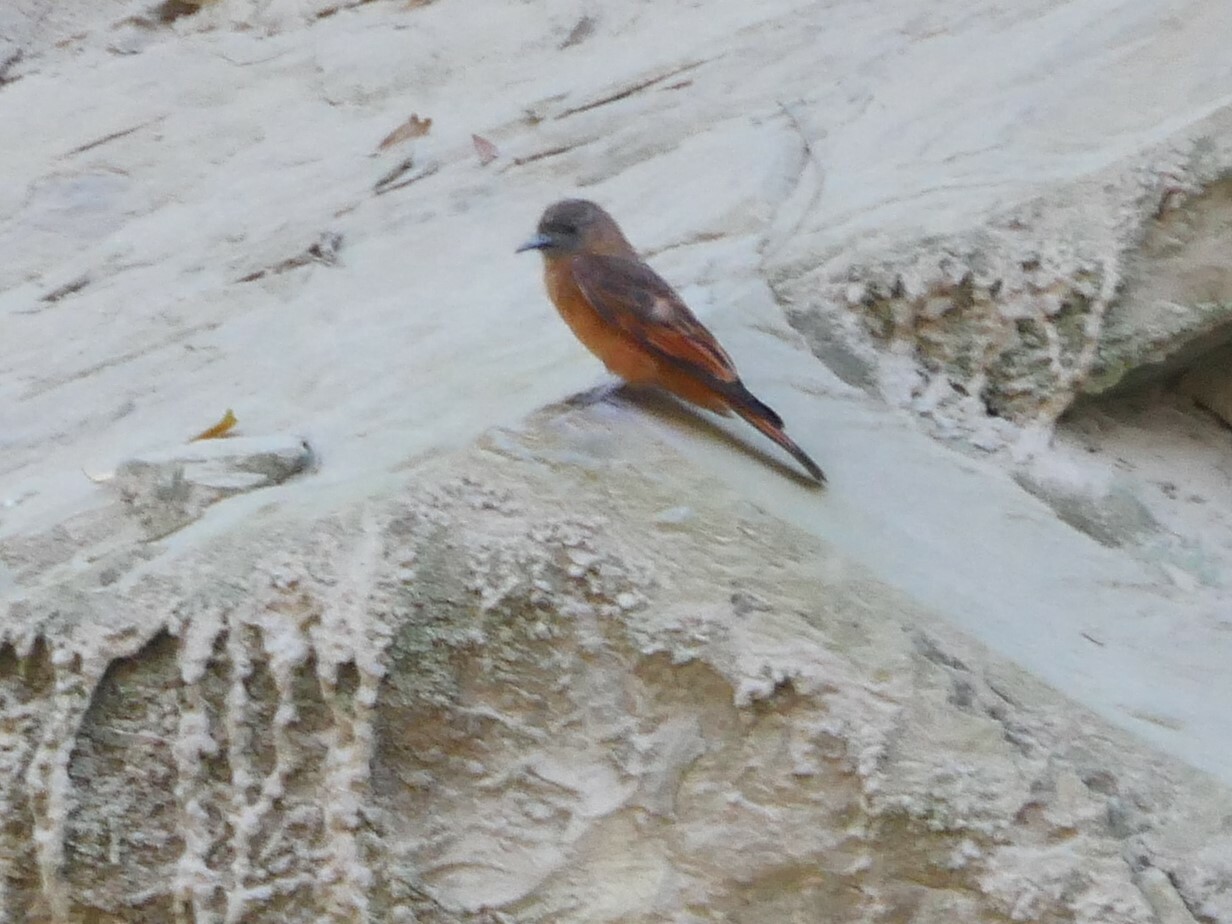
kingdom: Animalia
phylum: Chordata
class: Aves
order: Passeriformes
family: Tyrannidae
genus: Hirundinea
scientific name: Hirundinea ferruginea
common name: Cliff flycatcher
